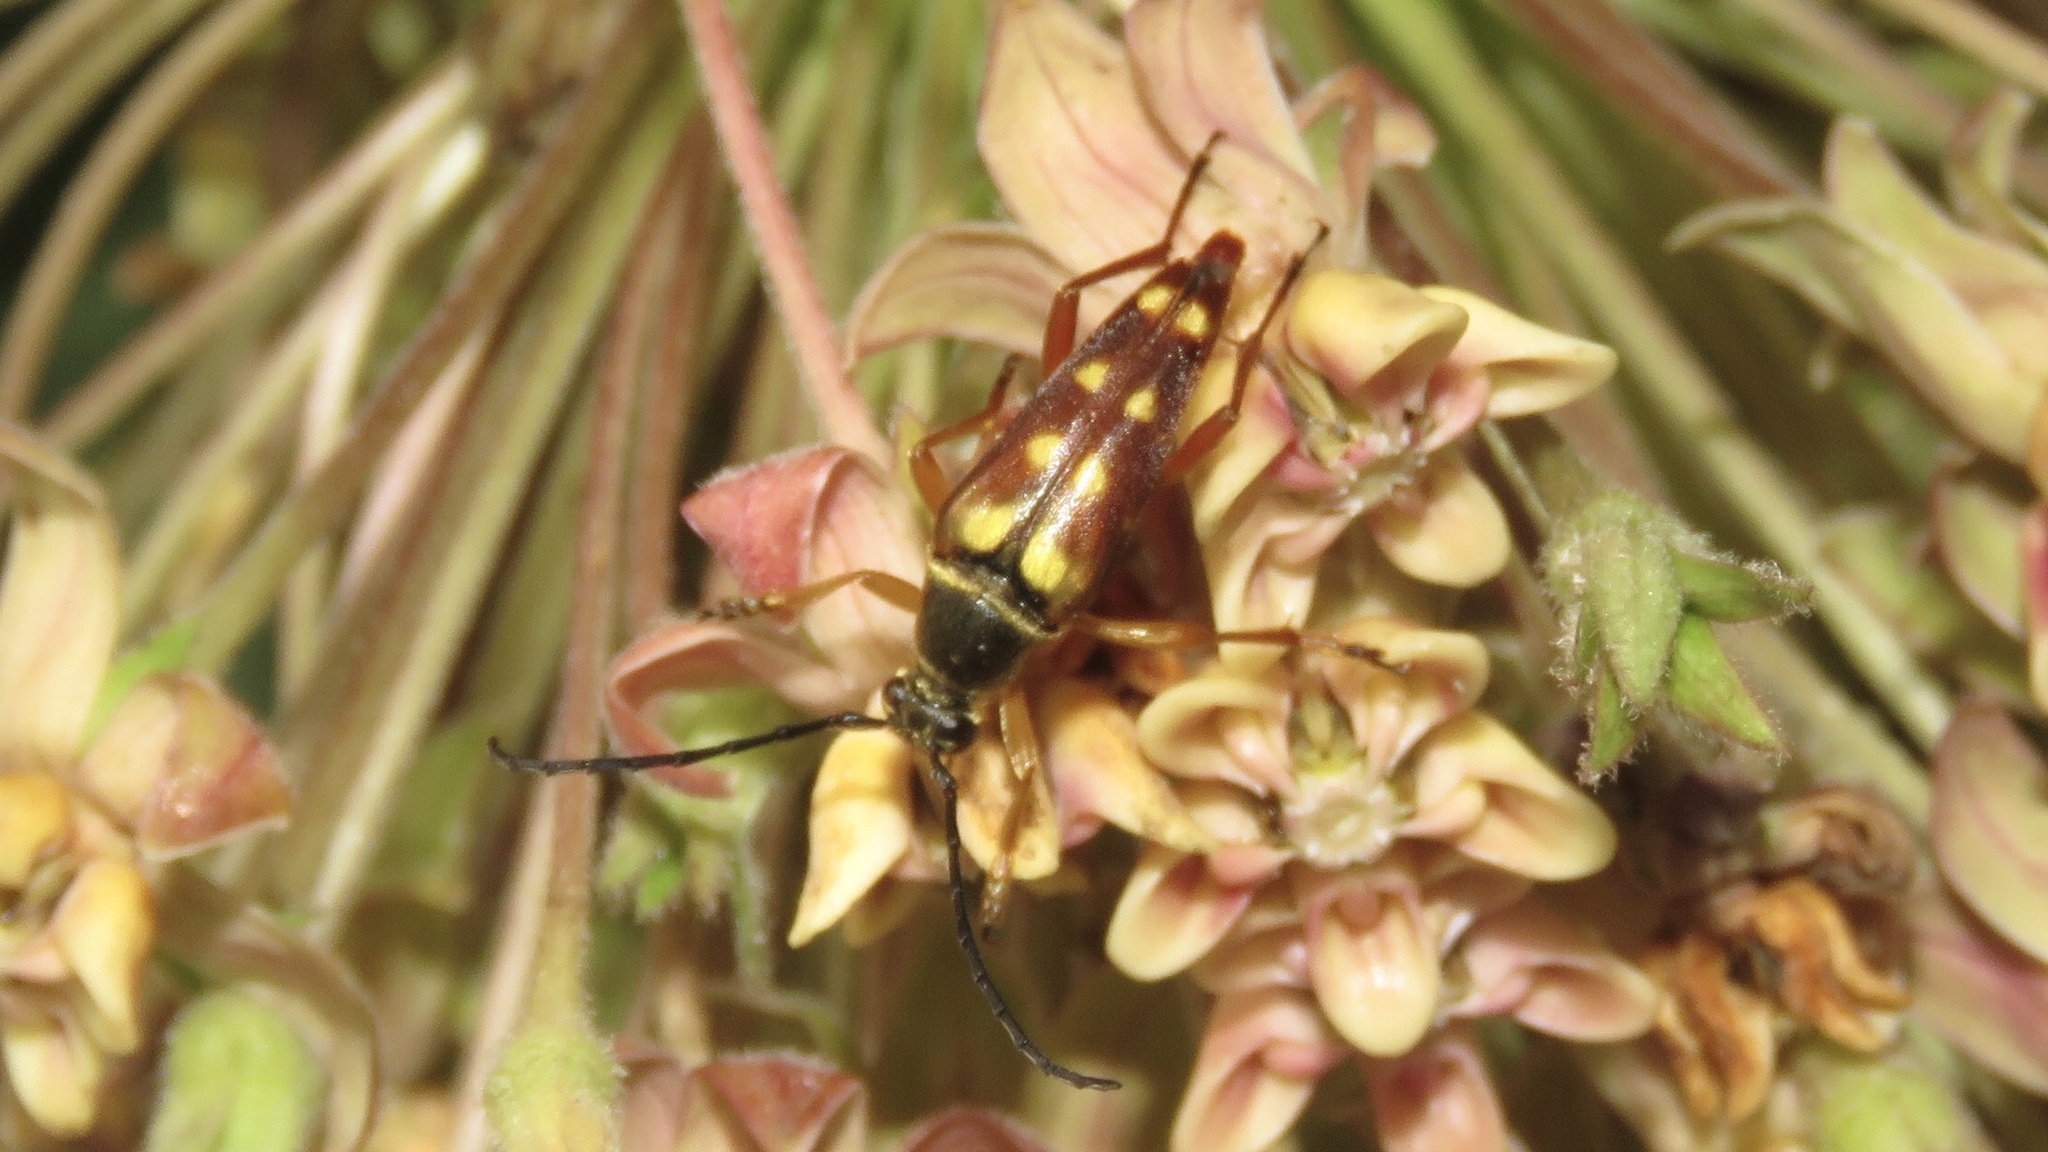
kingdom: Animalia
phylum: Arthropoda
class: Insecta
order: Coleoptera
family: Cerambycidae
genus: Typocerus
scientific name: Typocerus velutinus
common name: Banded longhorn beetle
